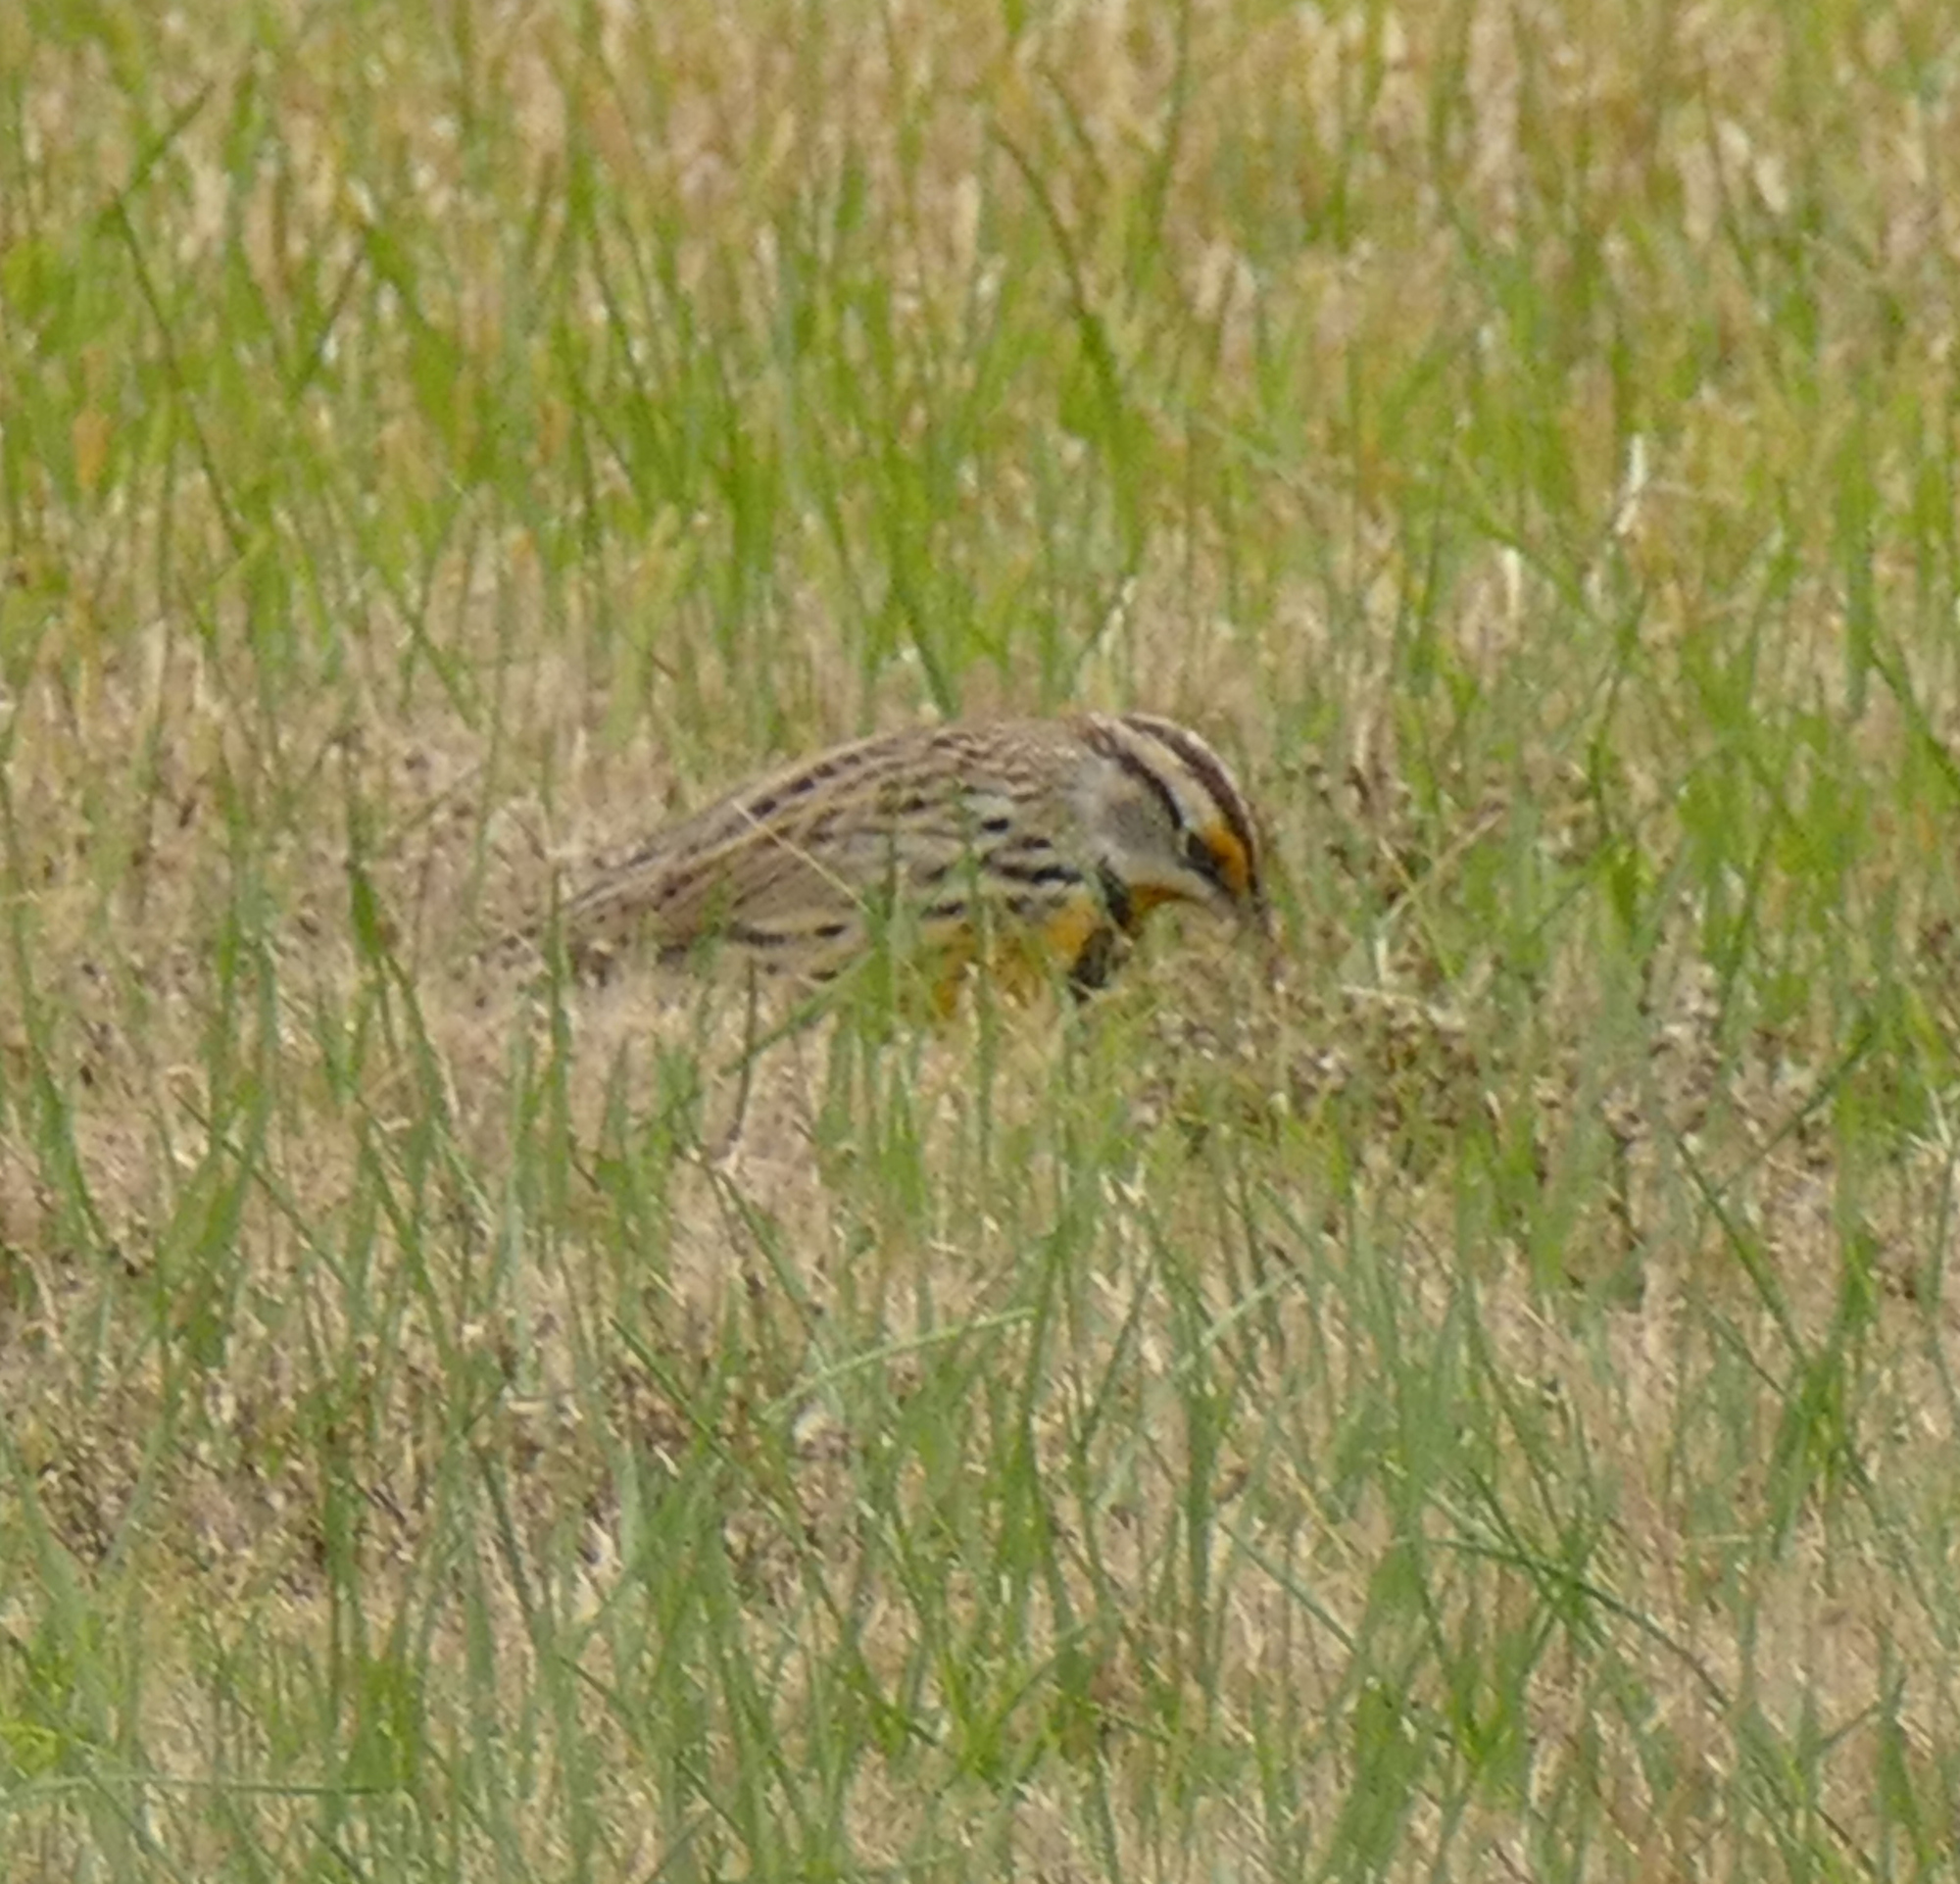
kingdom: Animalia
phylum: Chordata
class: Aves
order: Passeriformes
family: Icteridae
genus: Sturnella
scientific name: Sturnella magna
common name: Eastern meadowlark
